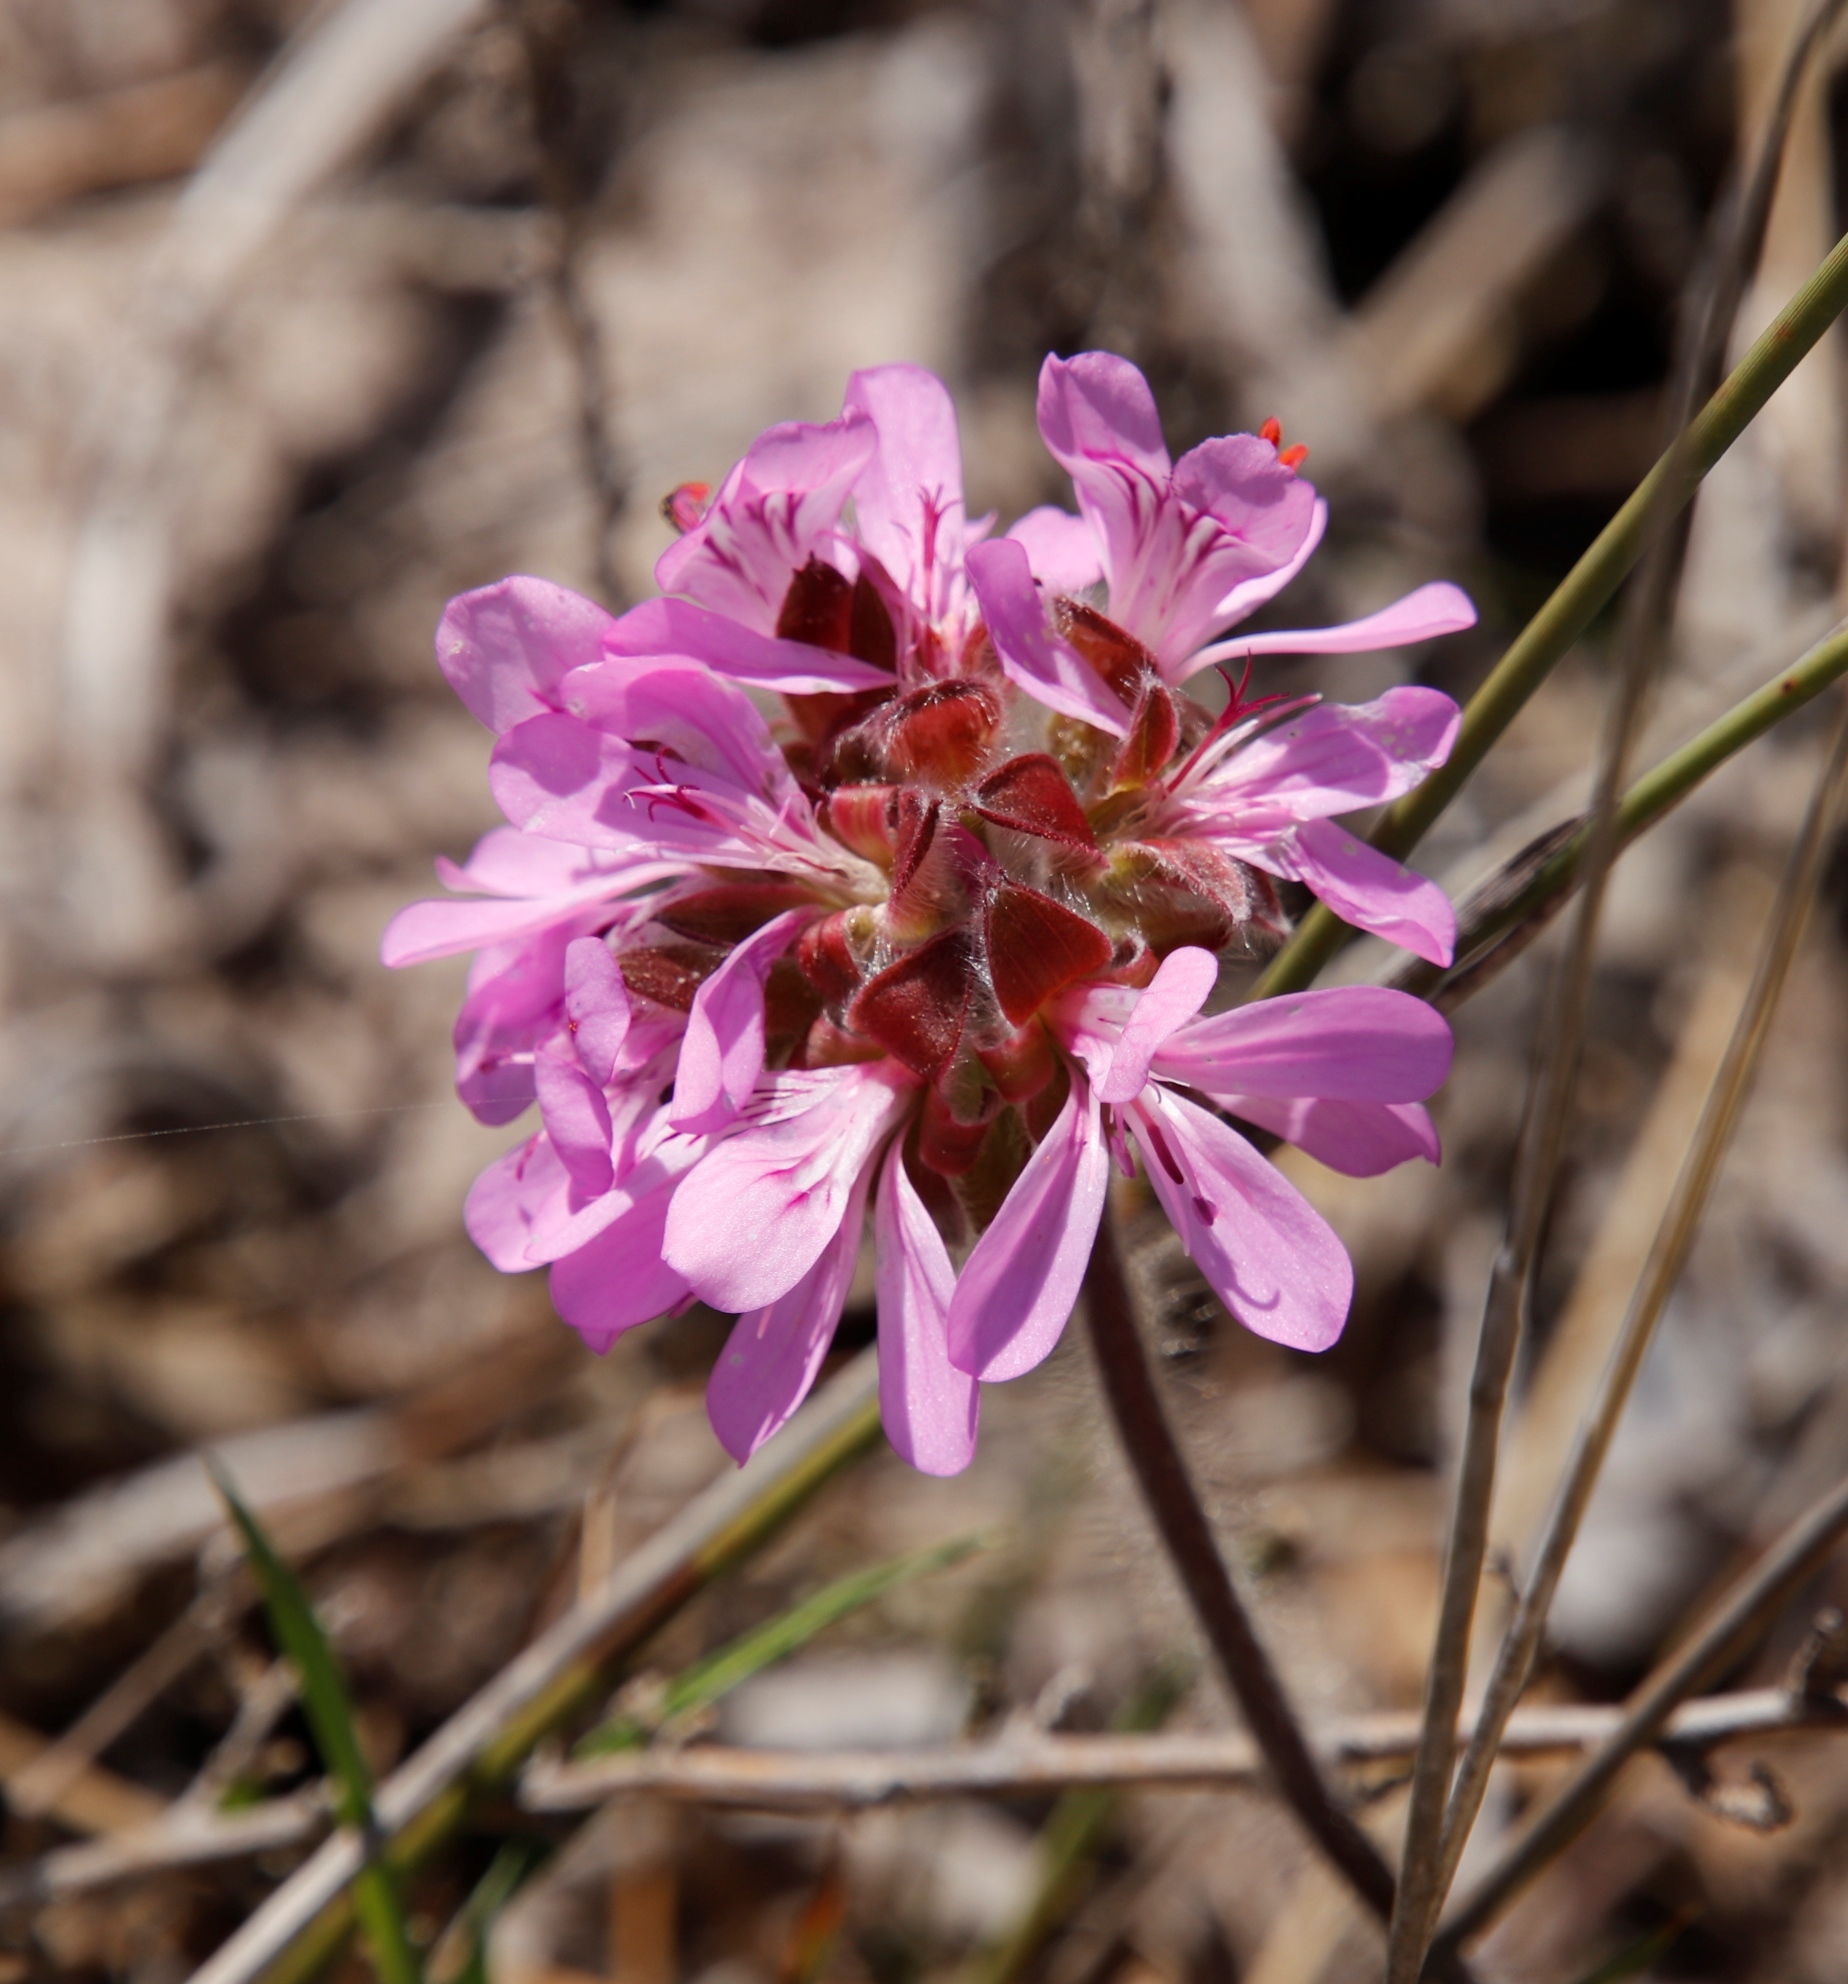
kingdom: Plantae
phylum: Tracheophyta
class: Magnoliopsida
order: Geraniales
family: Geraniaceae
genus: Pelargonium
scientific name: Pelargonium capitatum
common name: Rose scented geranium
